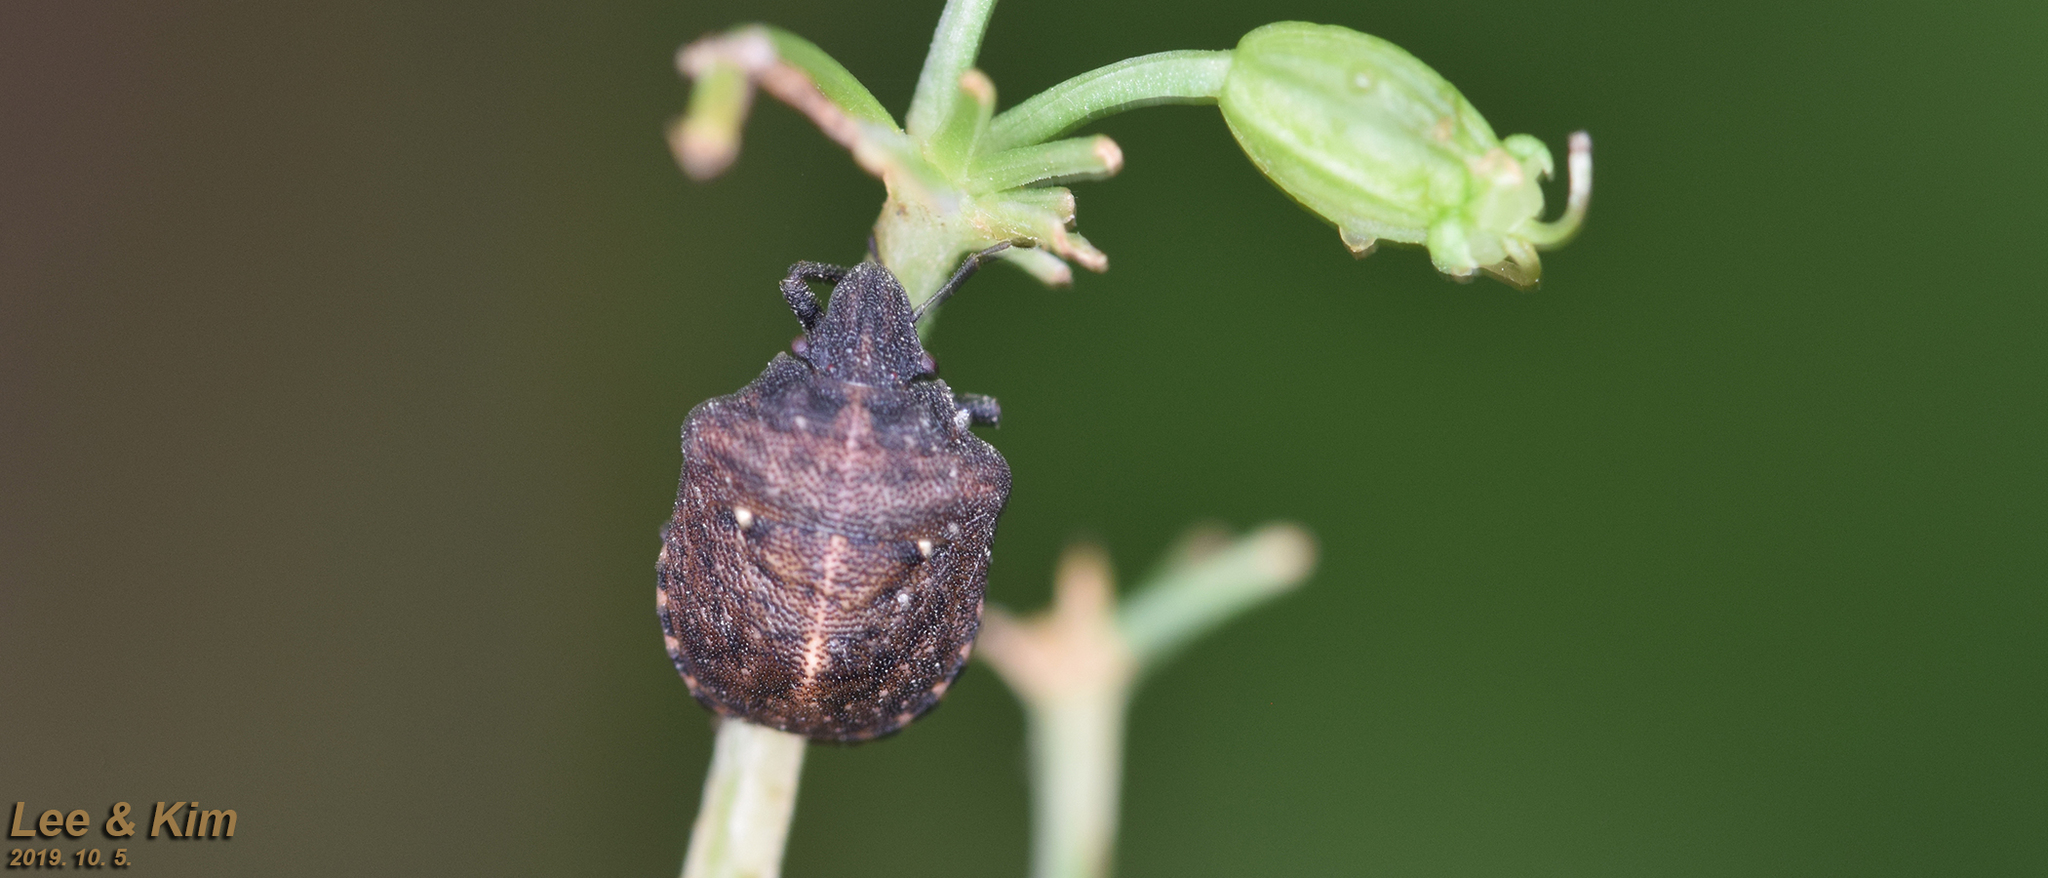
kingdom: Animalia
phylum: Arthropoda
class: Insecta
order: Hemiptera
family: Pentatomidae
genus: Dybowskyia
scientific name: Dybowskyia reticulata
